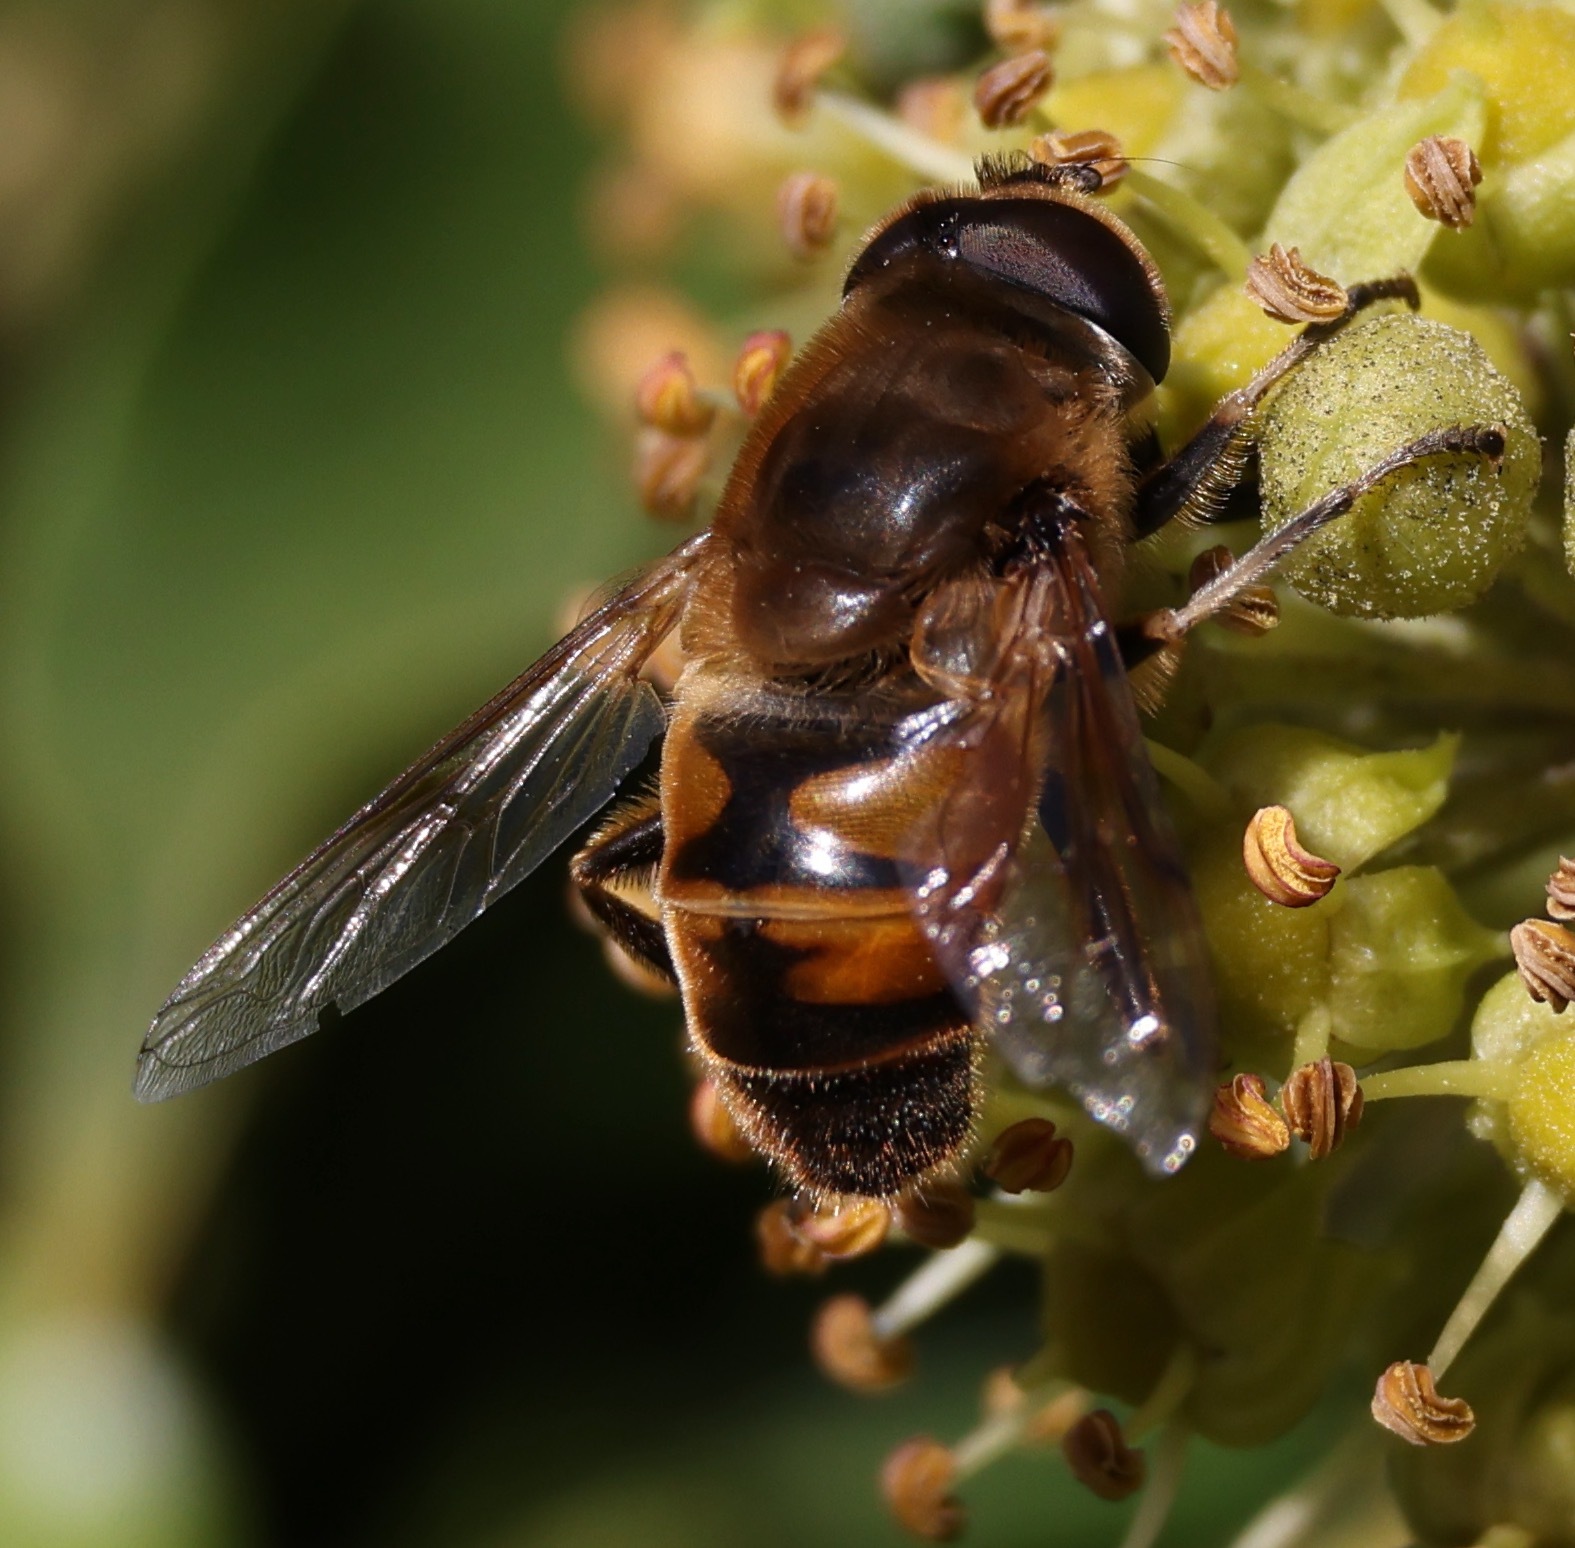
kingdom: Animalia
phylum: Arthropoda
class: Insecta
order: Diptera
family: Syrphidae
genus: Eristalis
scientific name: Eristalis tenax
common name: Drone fly
